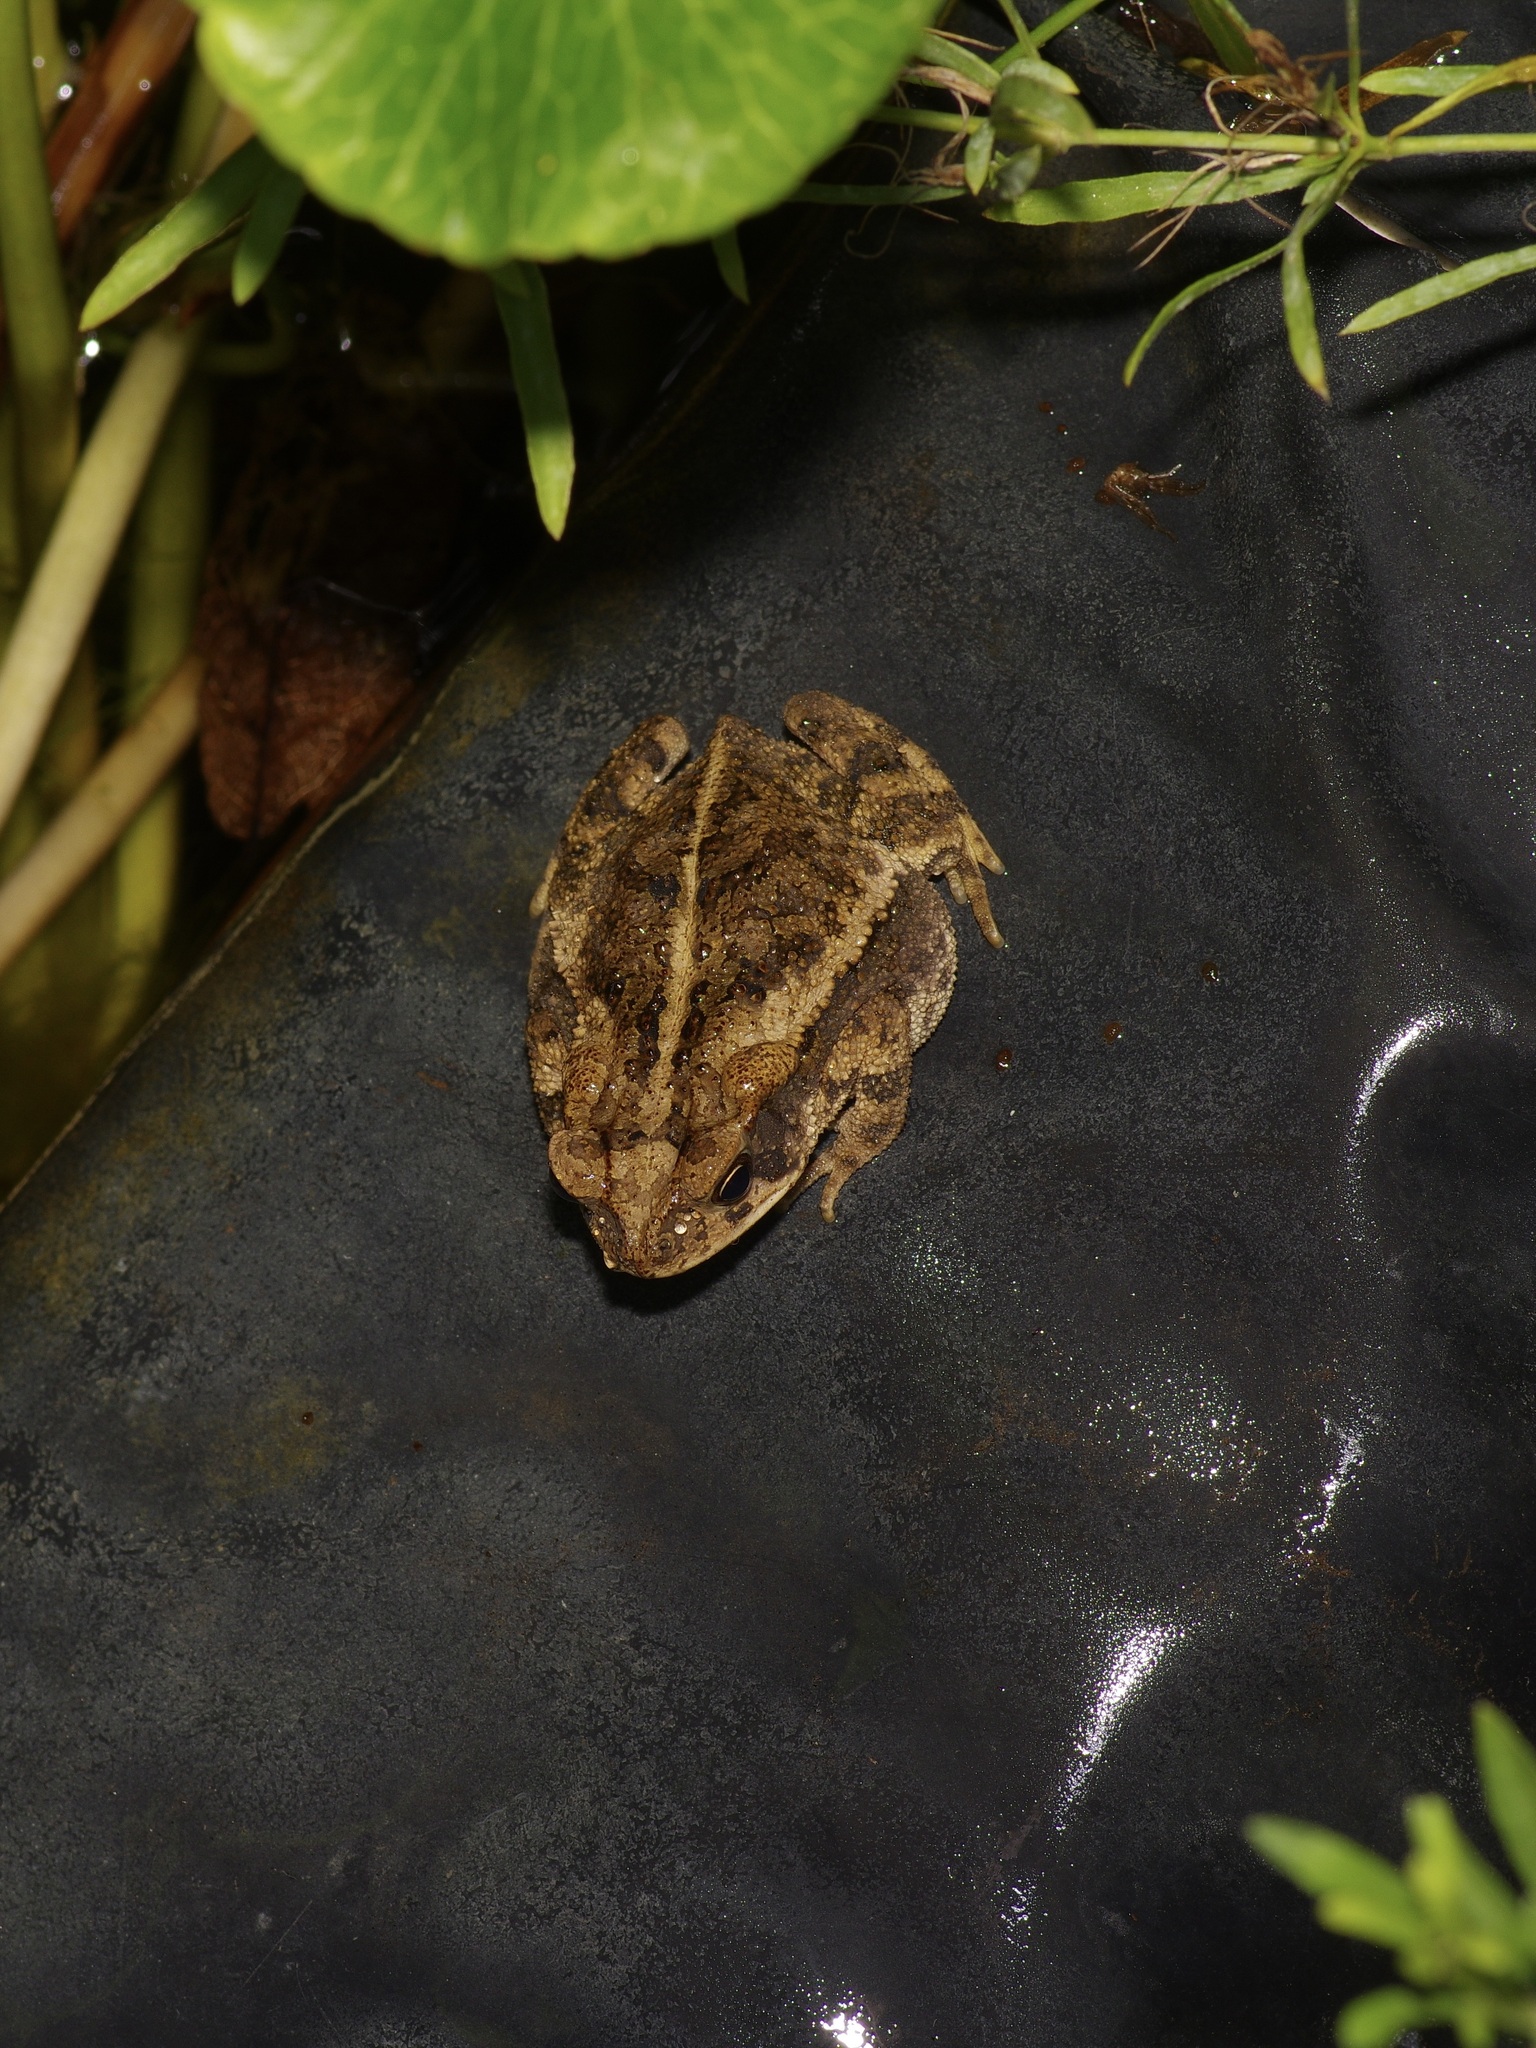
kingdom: Animalia
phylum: Chordata
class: Amphibia
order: Anura
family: Bufonidae
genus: Incilius
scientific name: Incilius nebulifer
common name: Gulf coast toad
